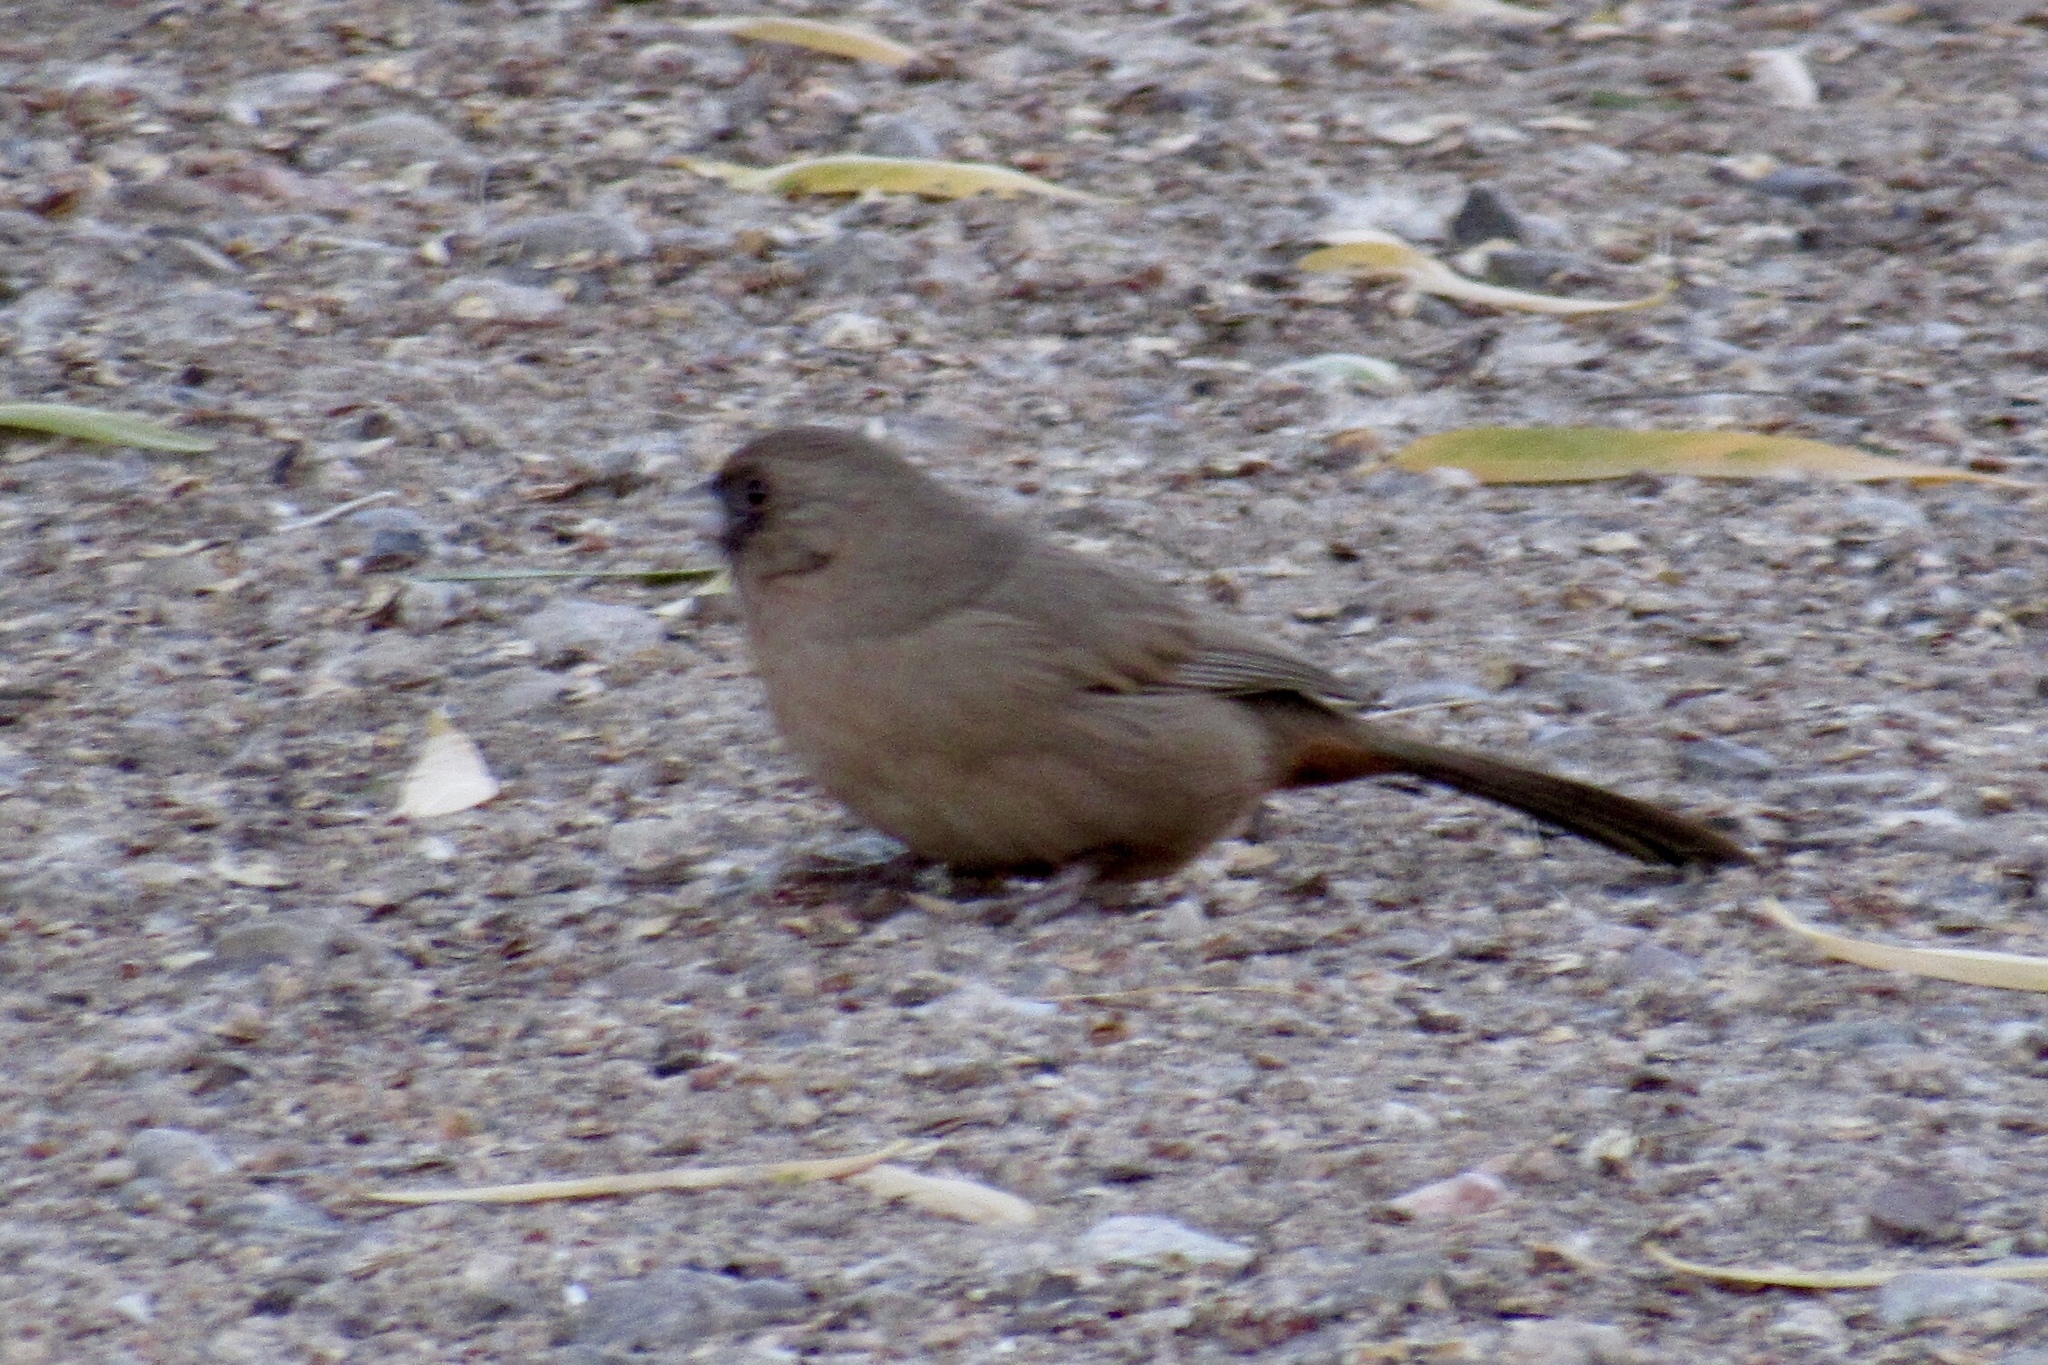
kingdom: Animalia
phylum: Chordata
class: Aves
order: Passeriformes
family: Passerellidae
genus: Melozone
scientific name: Melozone aberti
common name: Abert's towhee
